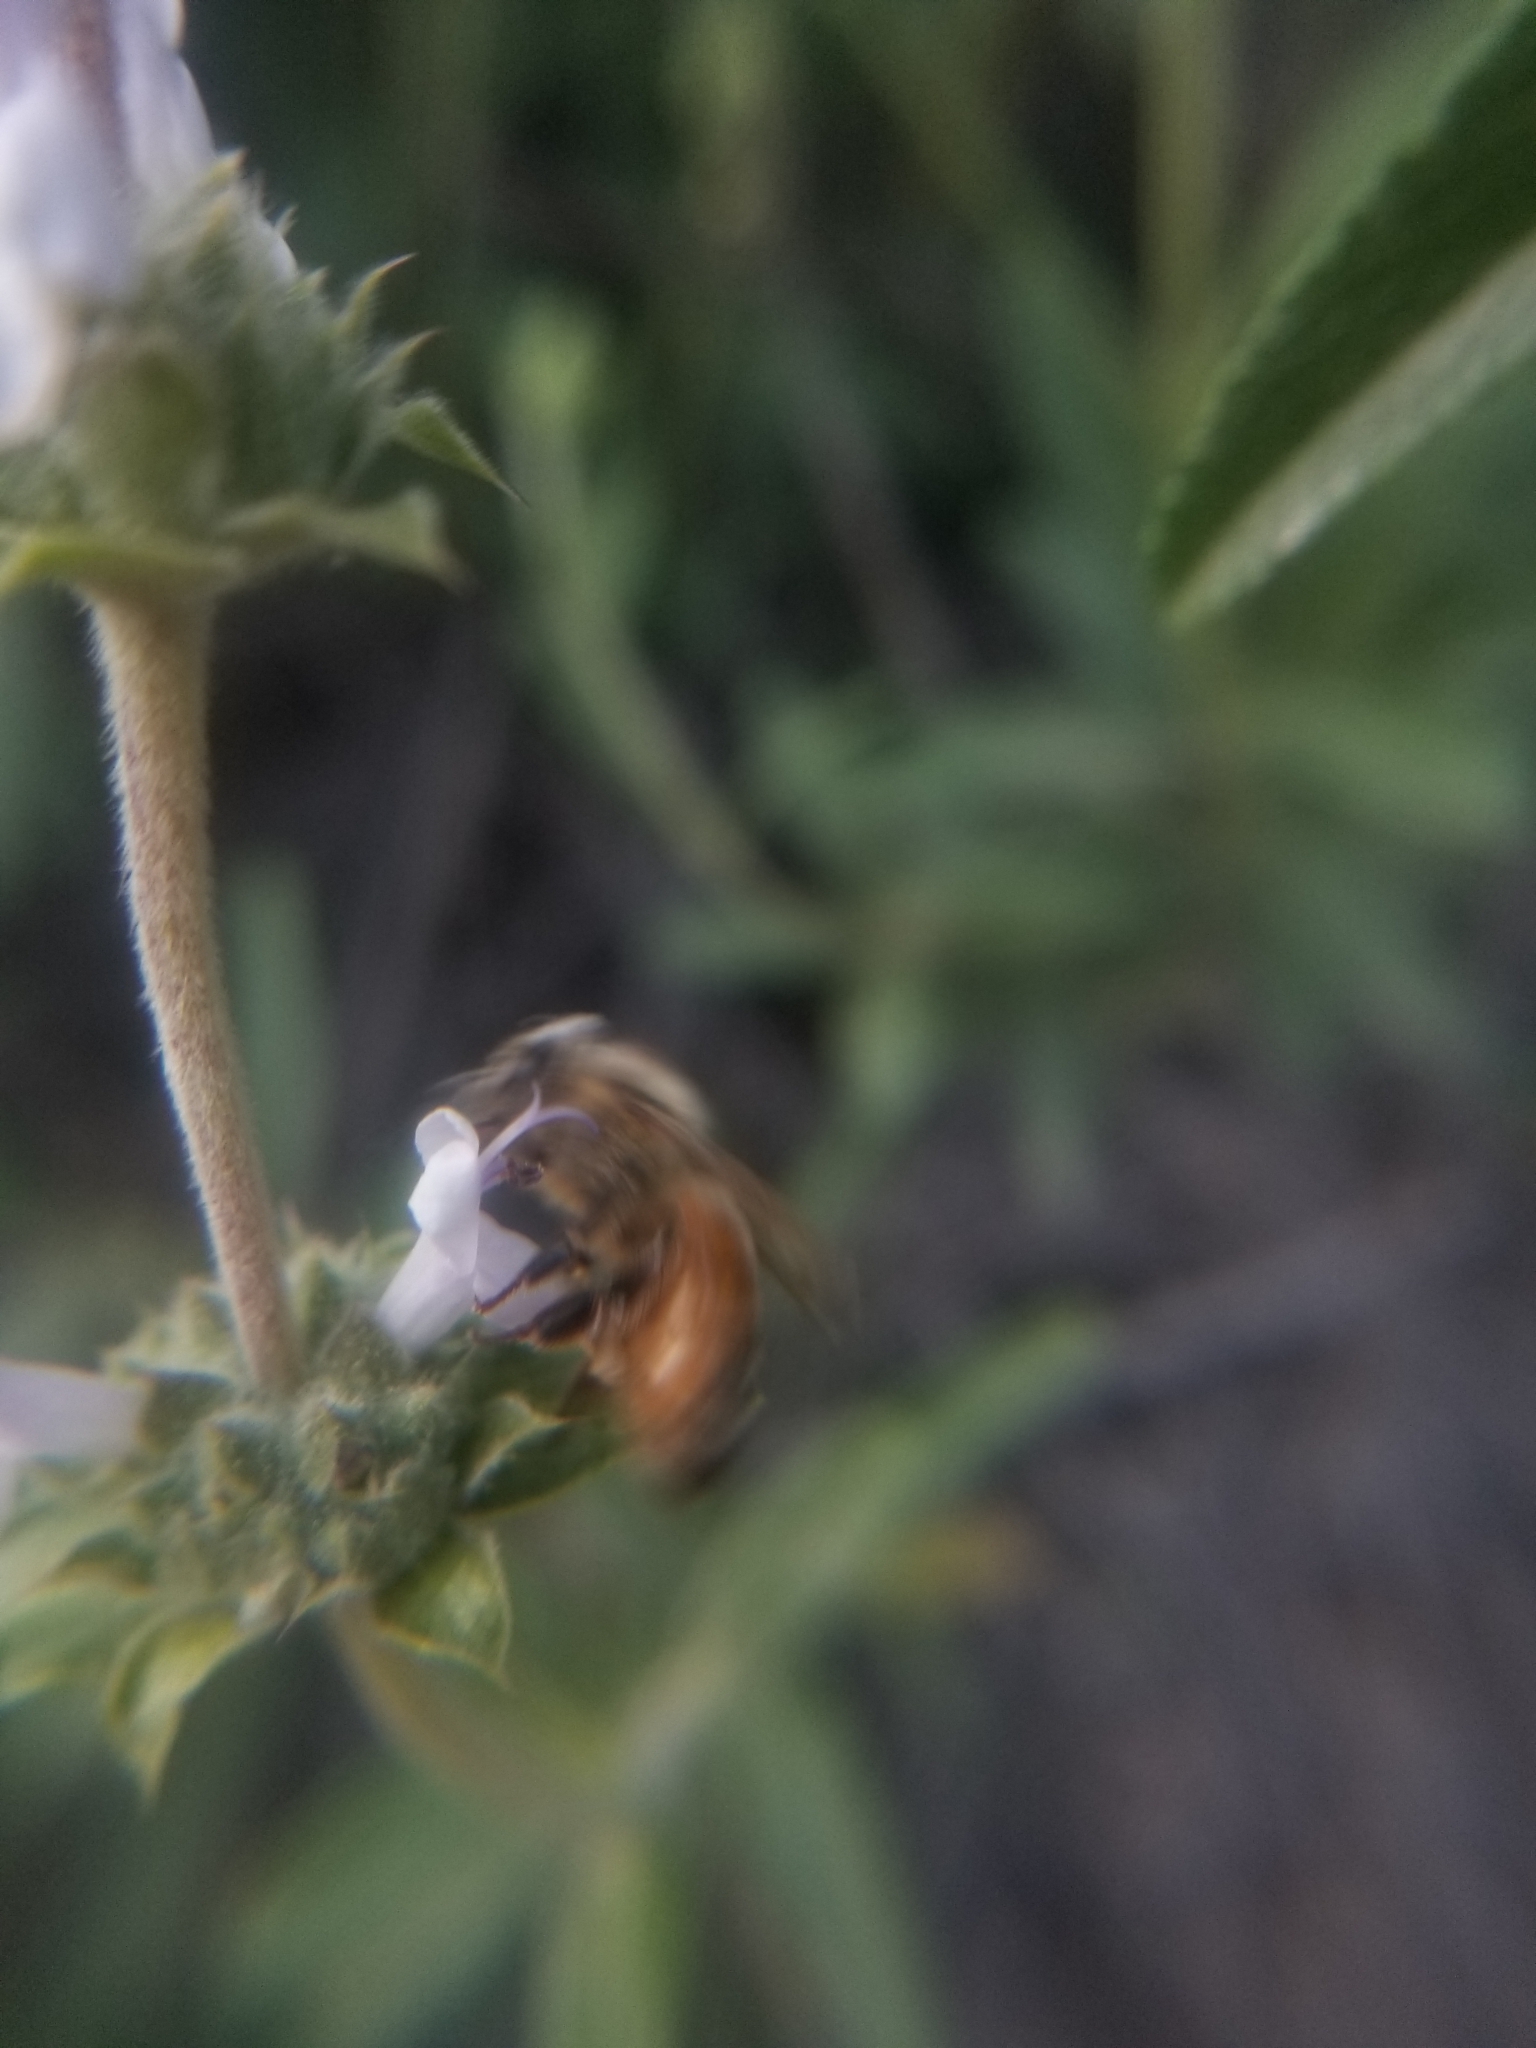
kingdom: Animalia
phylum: Arthropoda
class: Insecta
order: Hymenoptera
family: Apidae
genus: Apis
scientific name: Apis mellifera
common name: Honey bee
